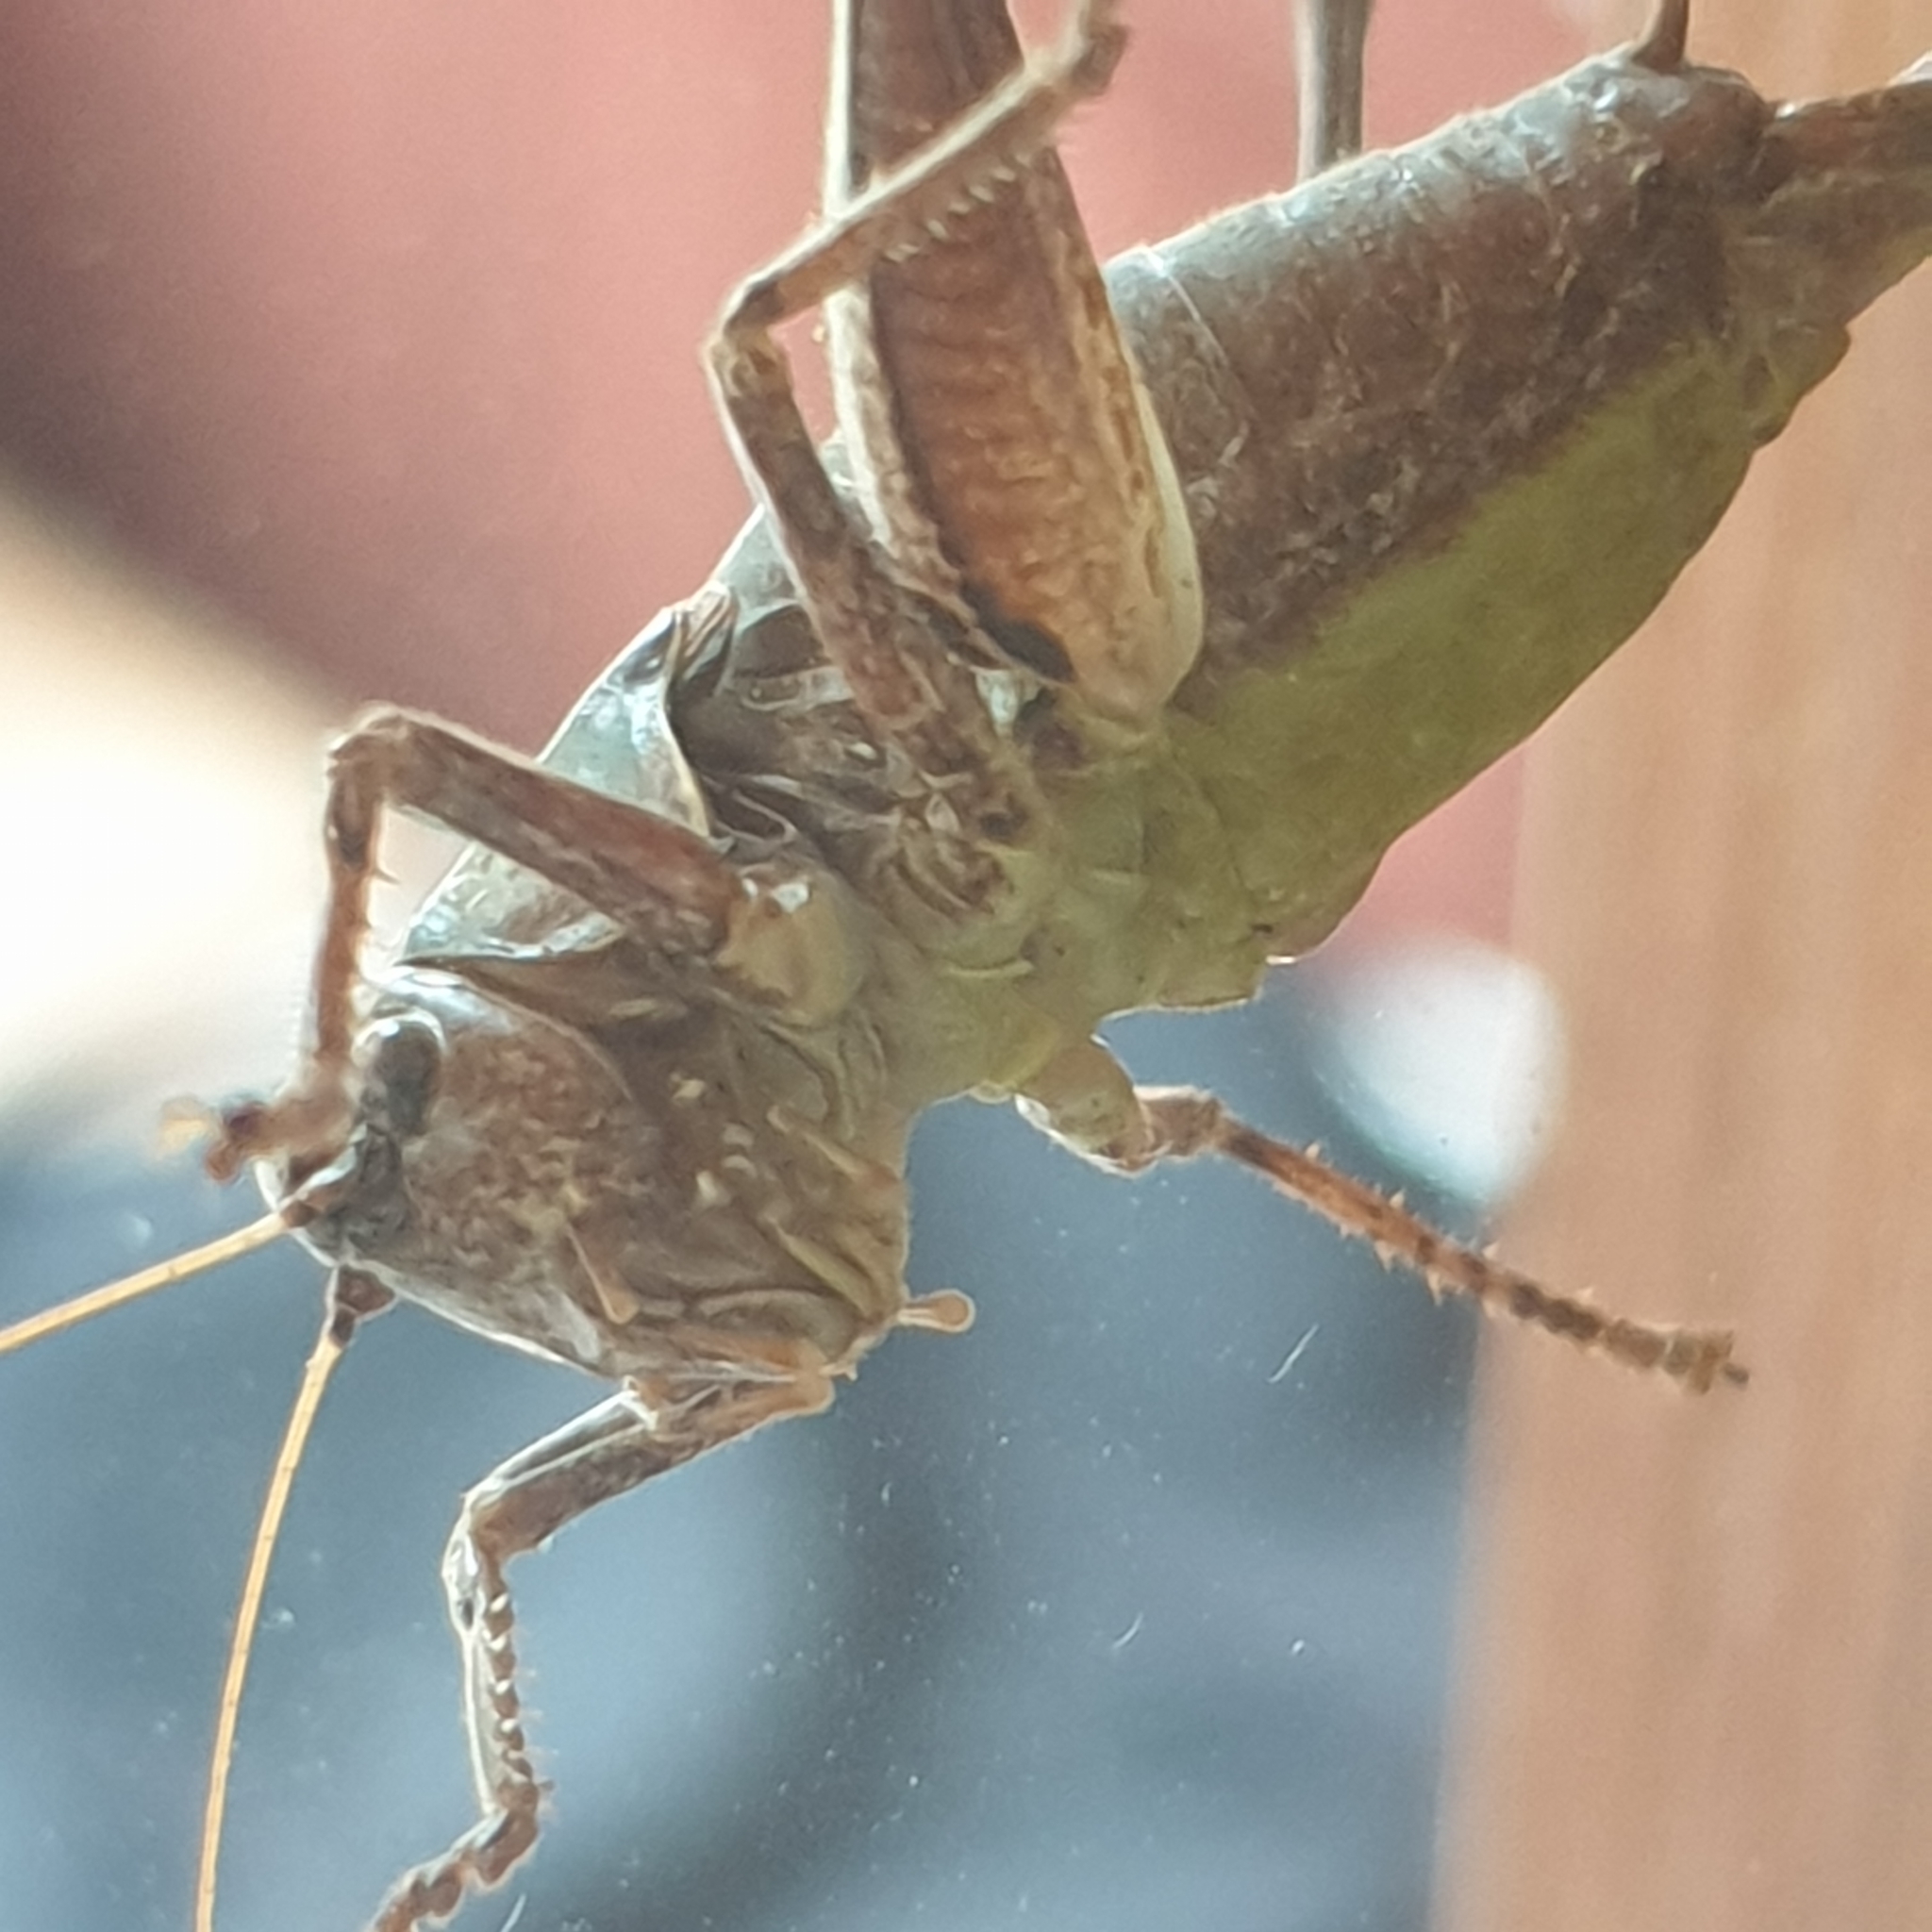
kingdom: Animalia
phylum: Arthropoda
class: Insecta
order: Orthoptera
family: Tettigoniidae
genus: Pholidoptera
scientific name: Pholidoptera griseoaptera
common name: Dark bush-cricket
